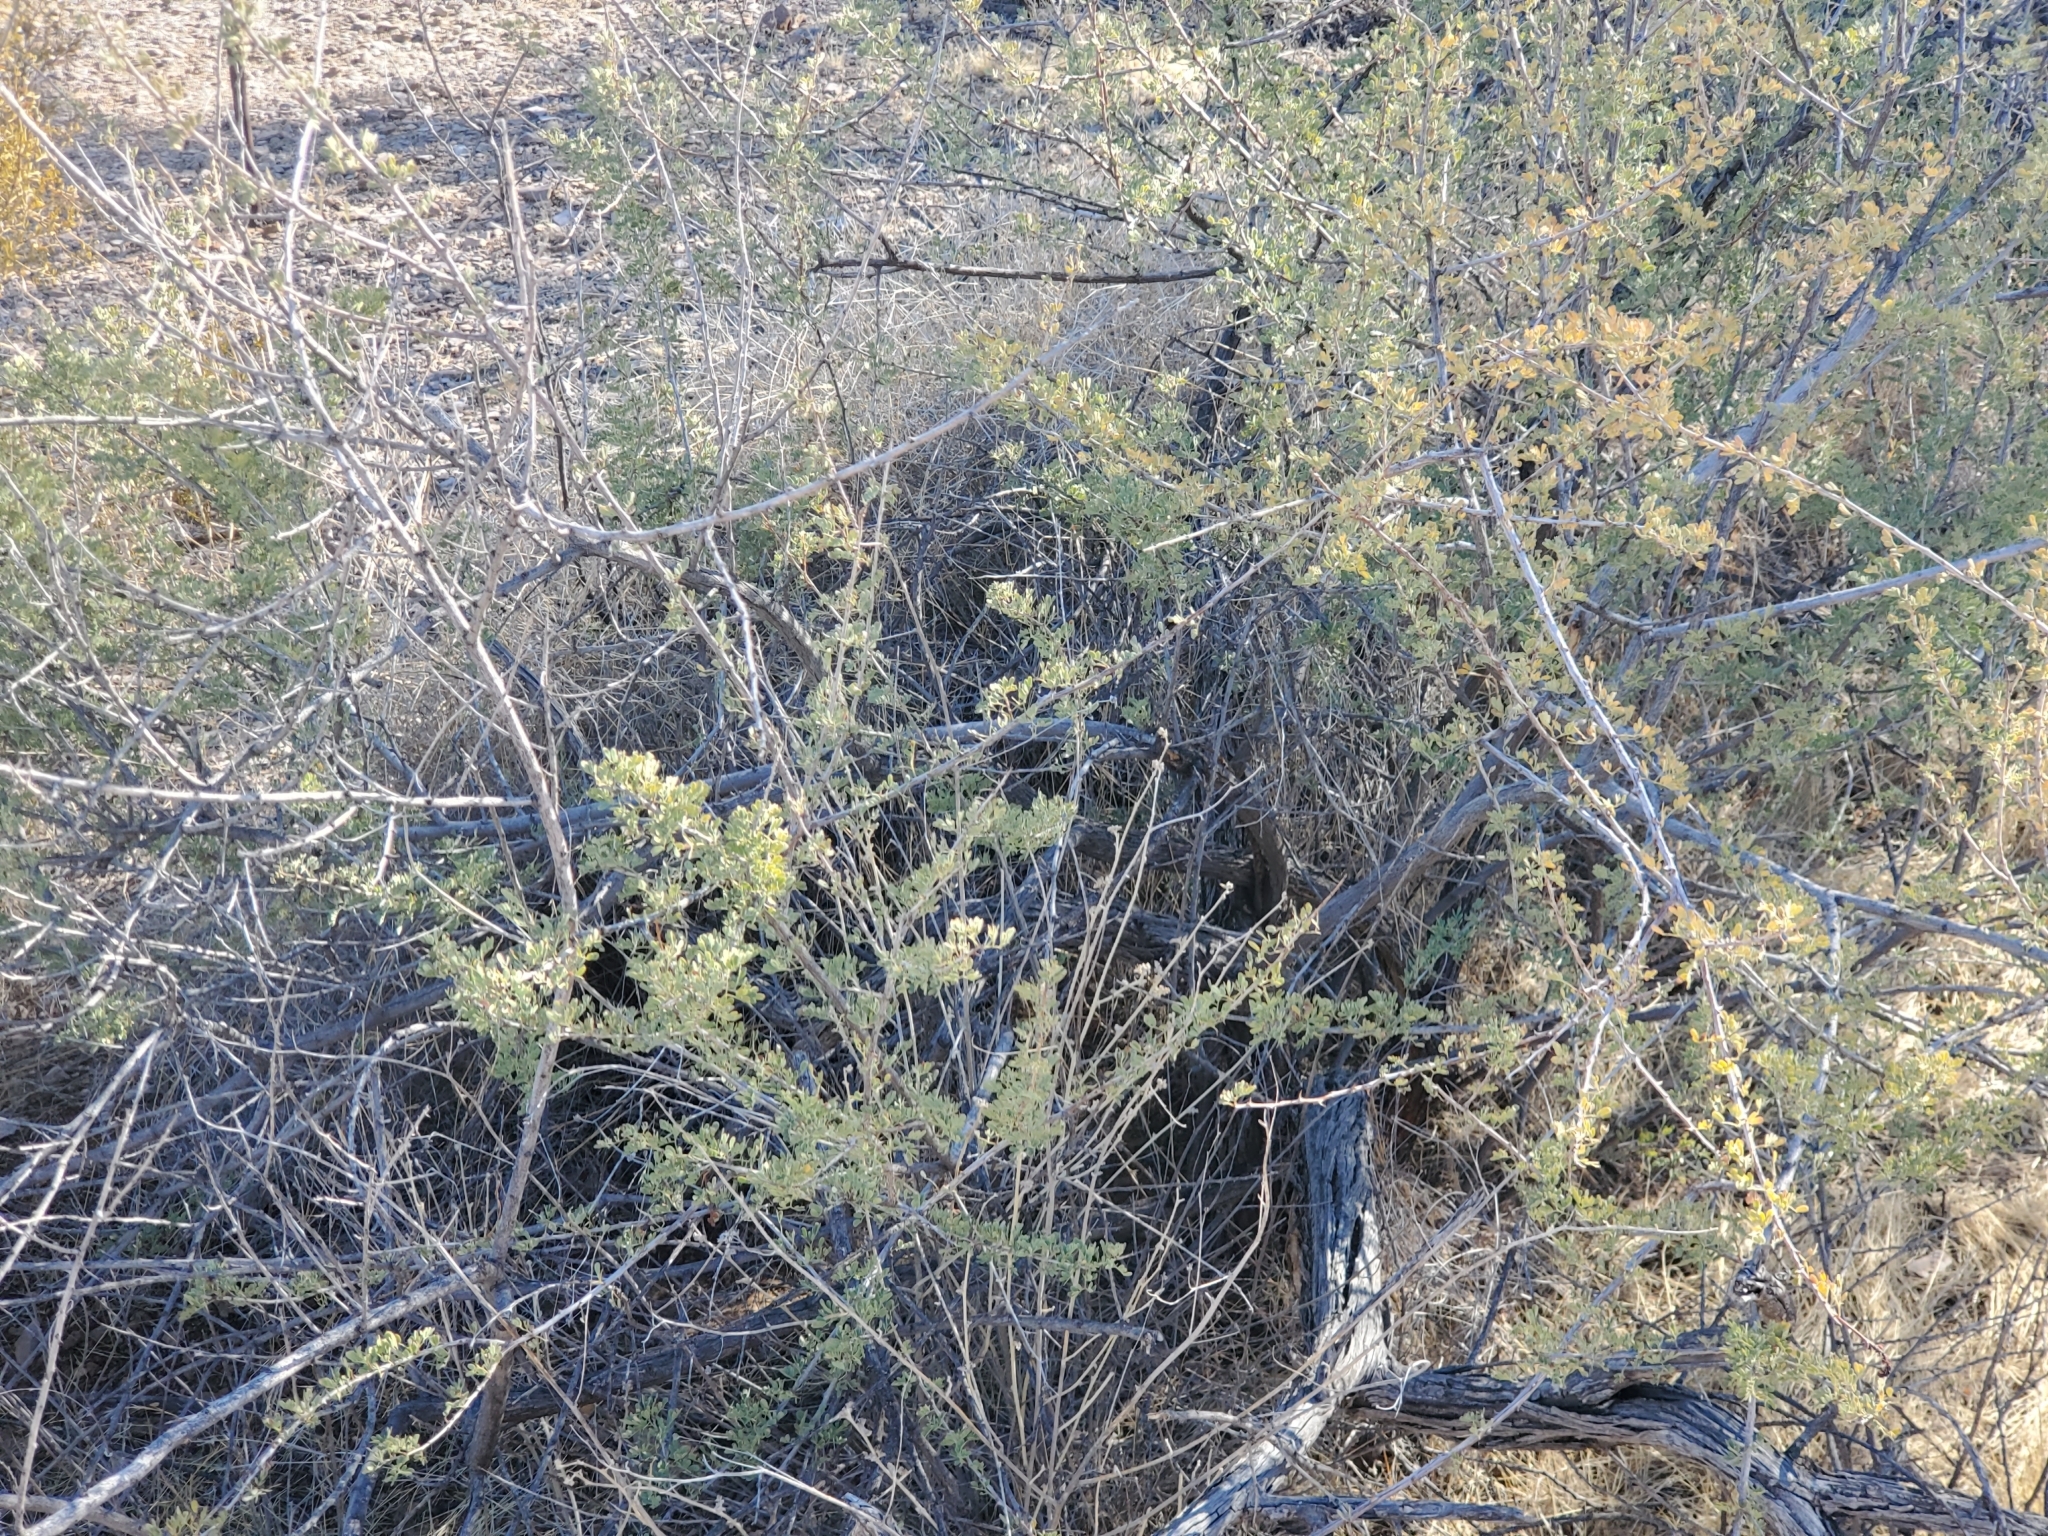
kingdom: Plantae
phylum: Tracheophyta
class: Magnoliopsida
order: Fabales
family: Fabaceae
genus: Senegalia
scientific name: Senegalia greggii
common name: Texas-mimosa
